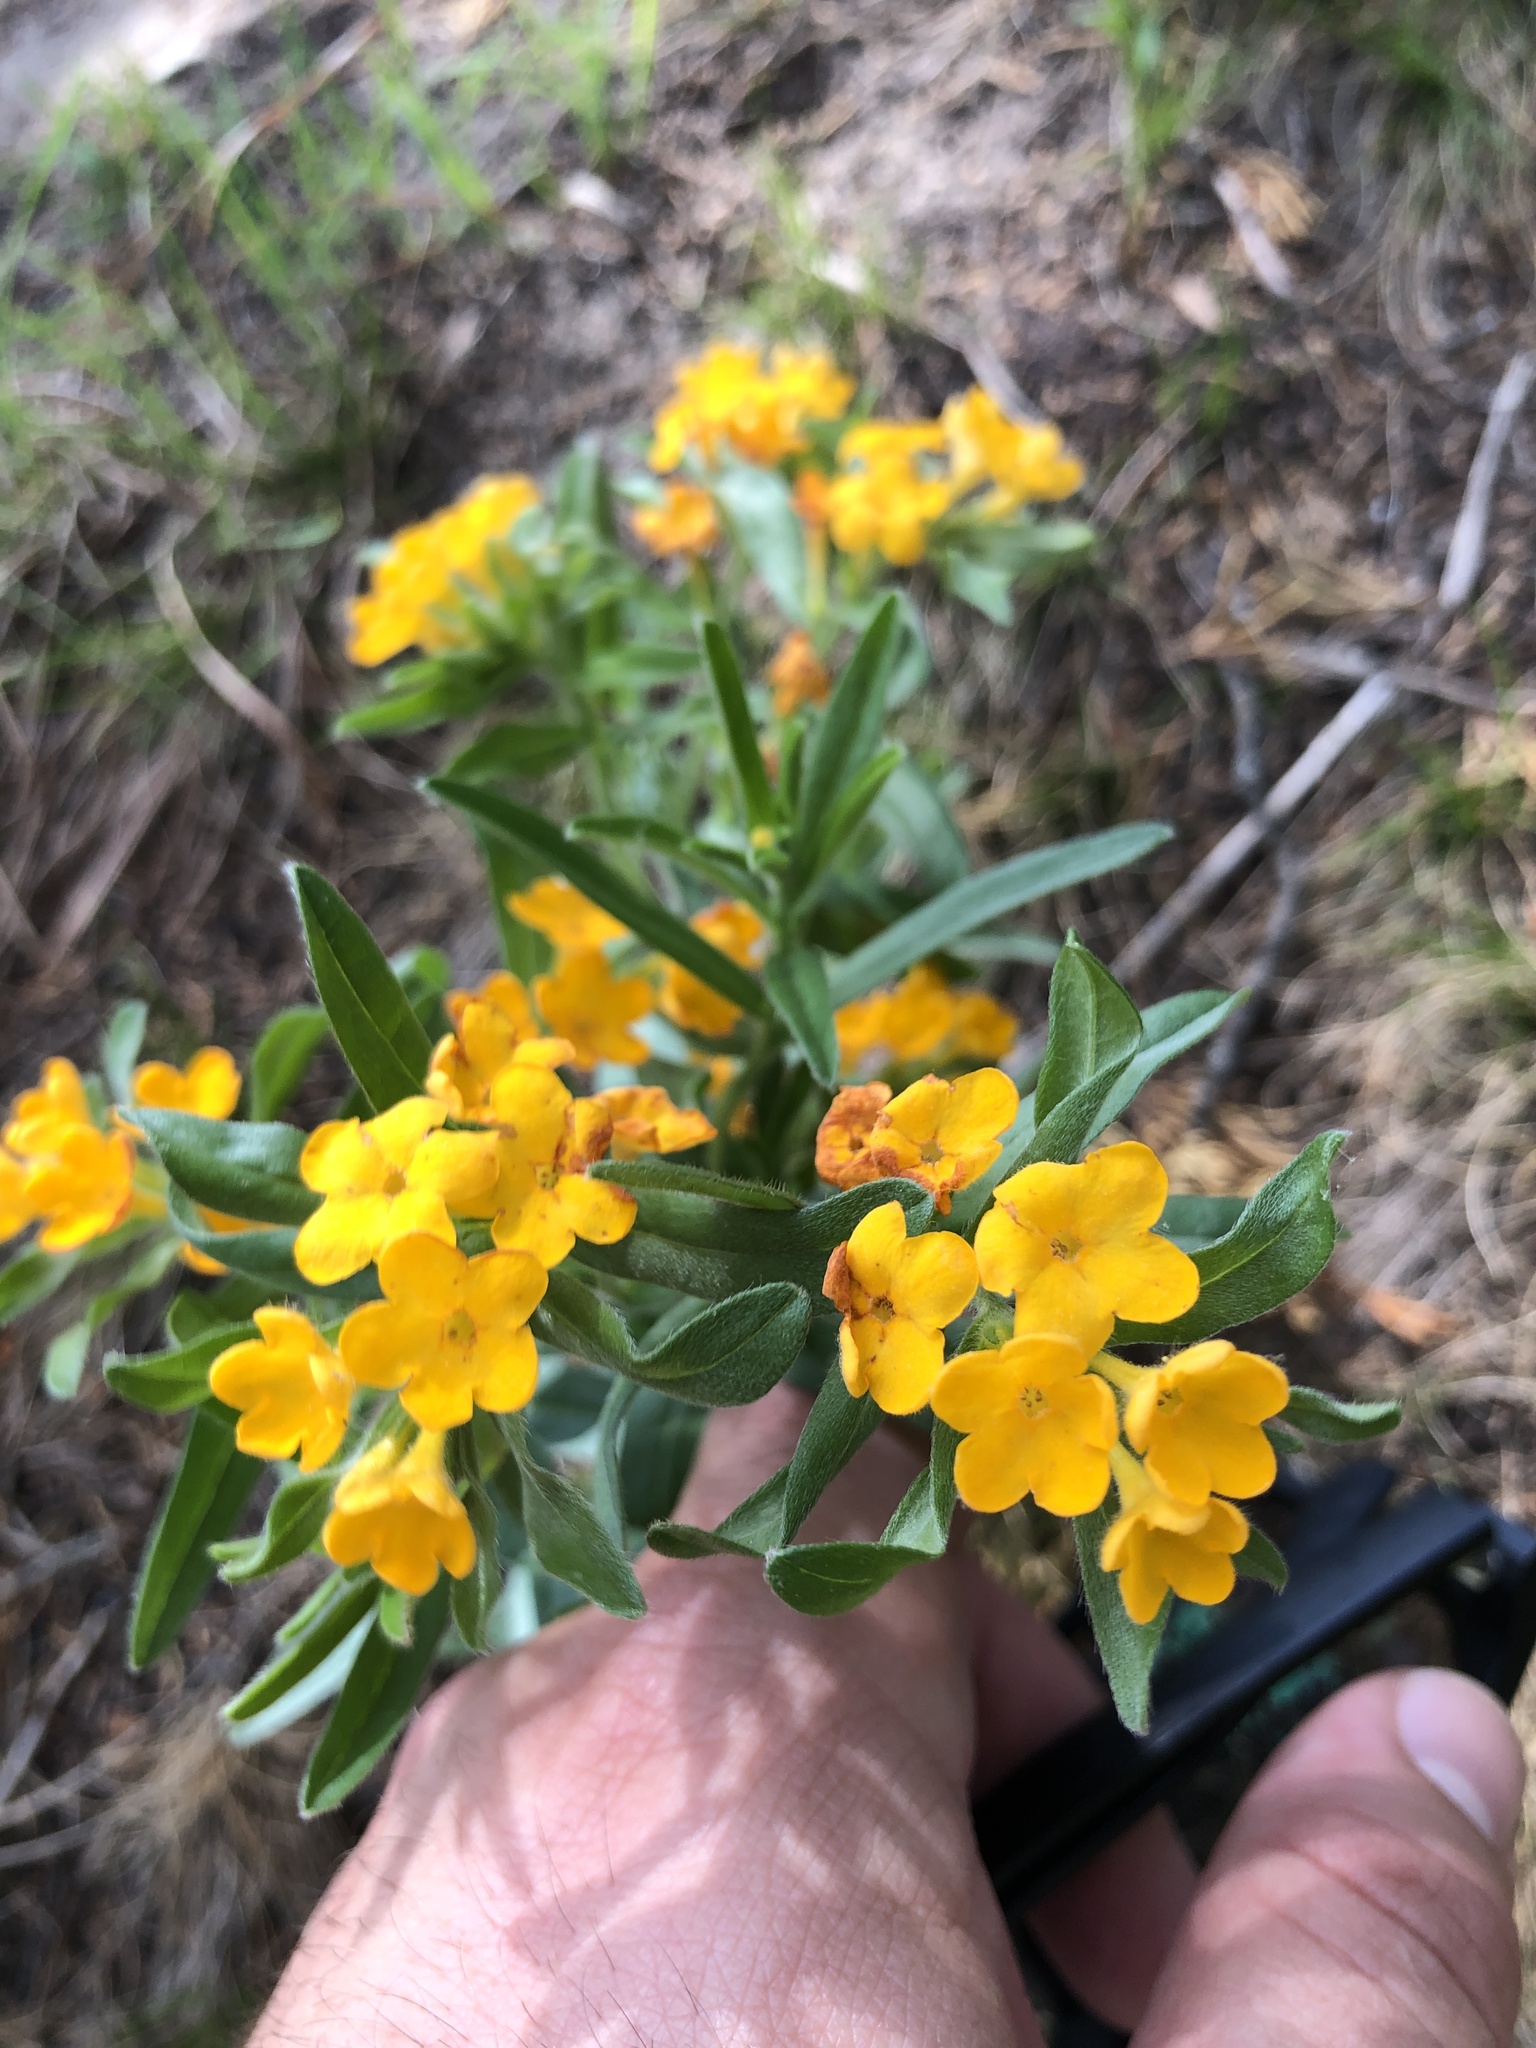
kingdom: Plantae
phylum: Tracheophyta
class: Magnoliopsida
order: Boraginales
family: Boraginaceae
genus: Lithospermum
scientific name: Lithospermum canescens
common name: Hoary puccoon
